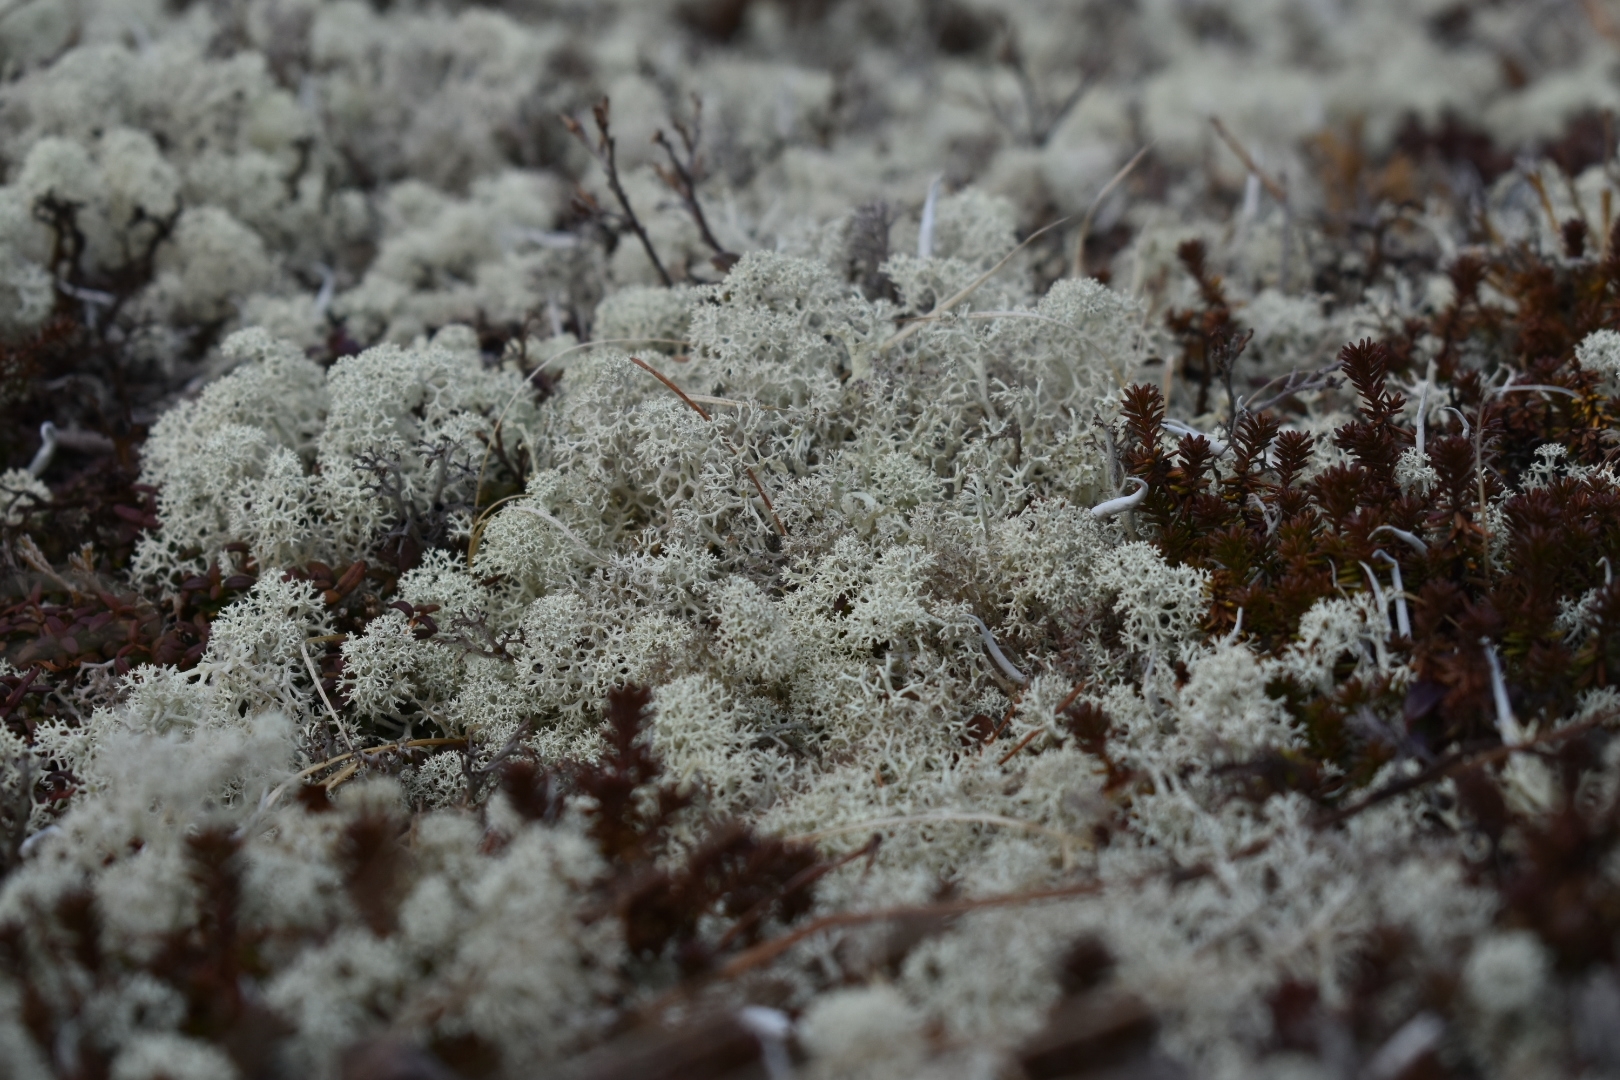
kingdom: Fungi
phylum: Ascomycota
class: Lecanoromycetes
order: Lecanorales
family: Cladoniaceae
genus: Cladonia
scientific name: Cladonia rangiferina
